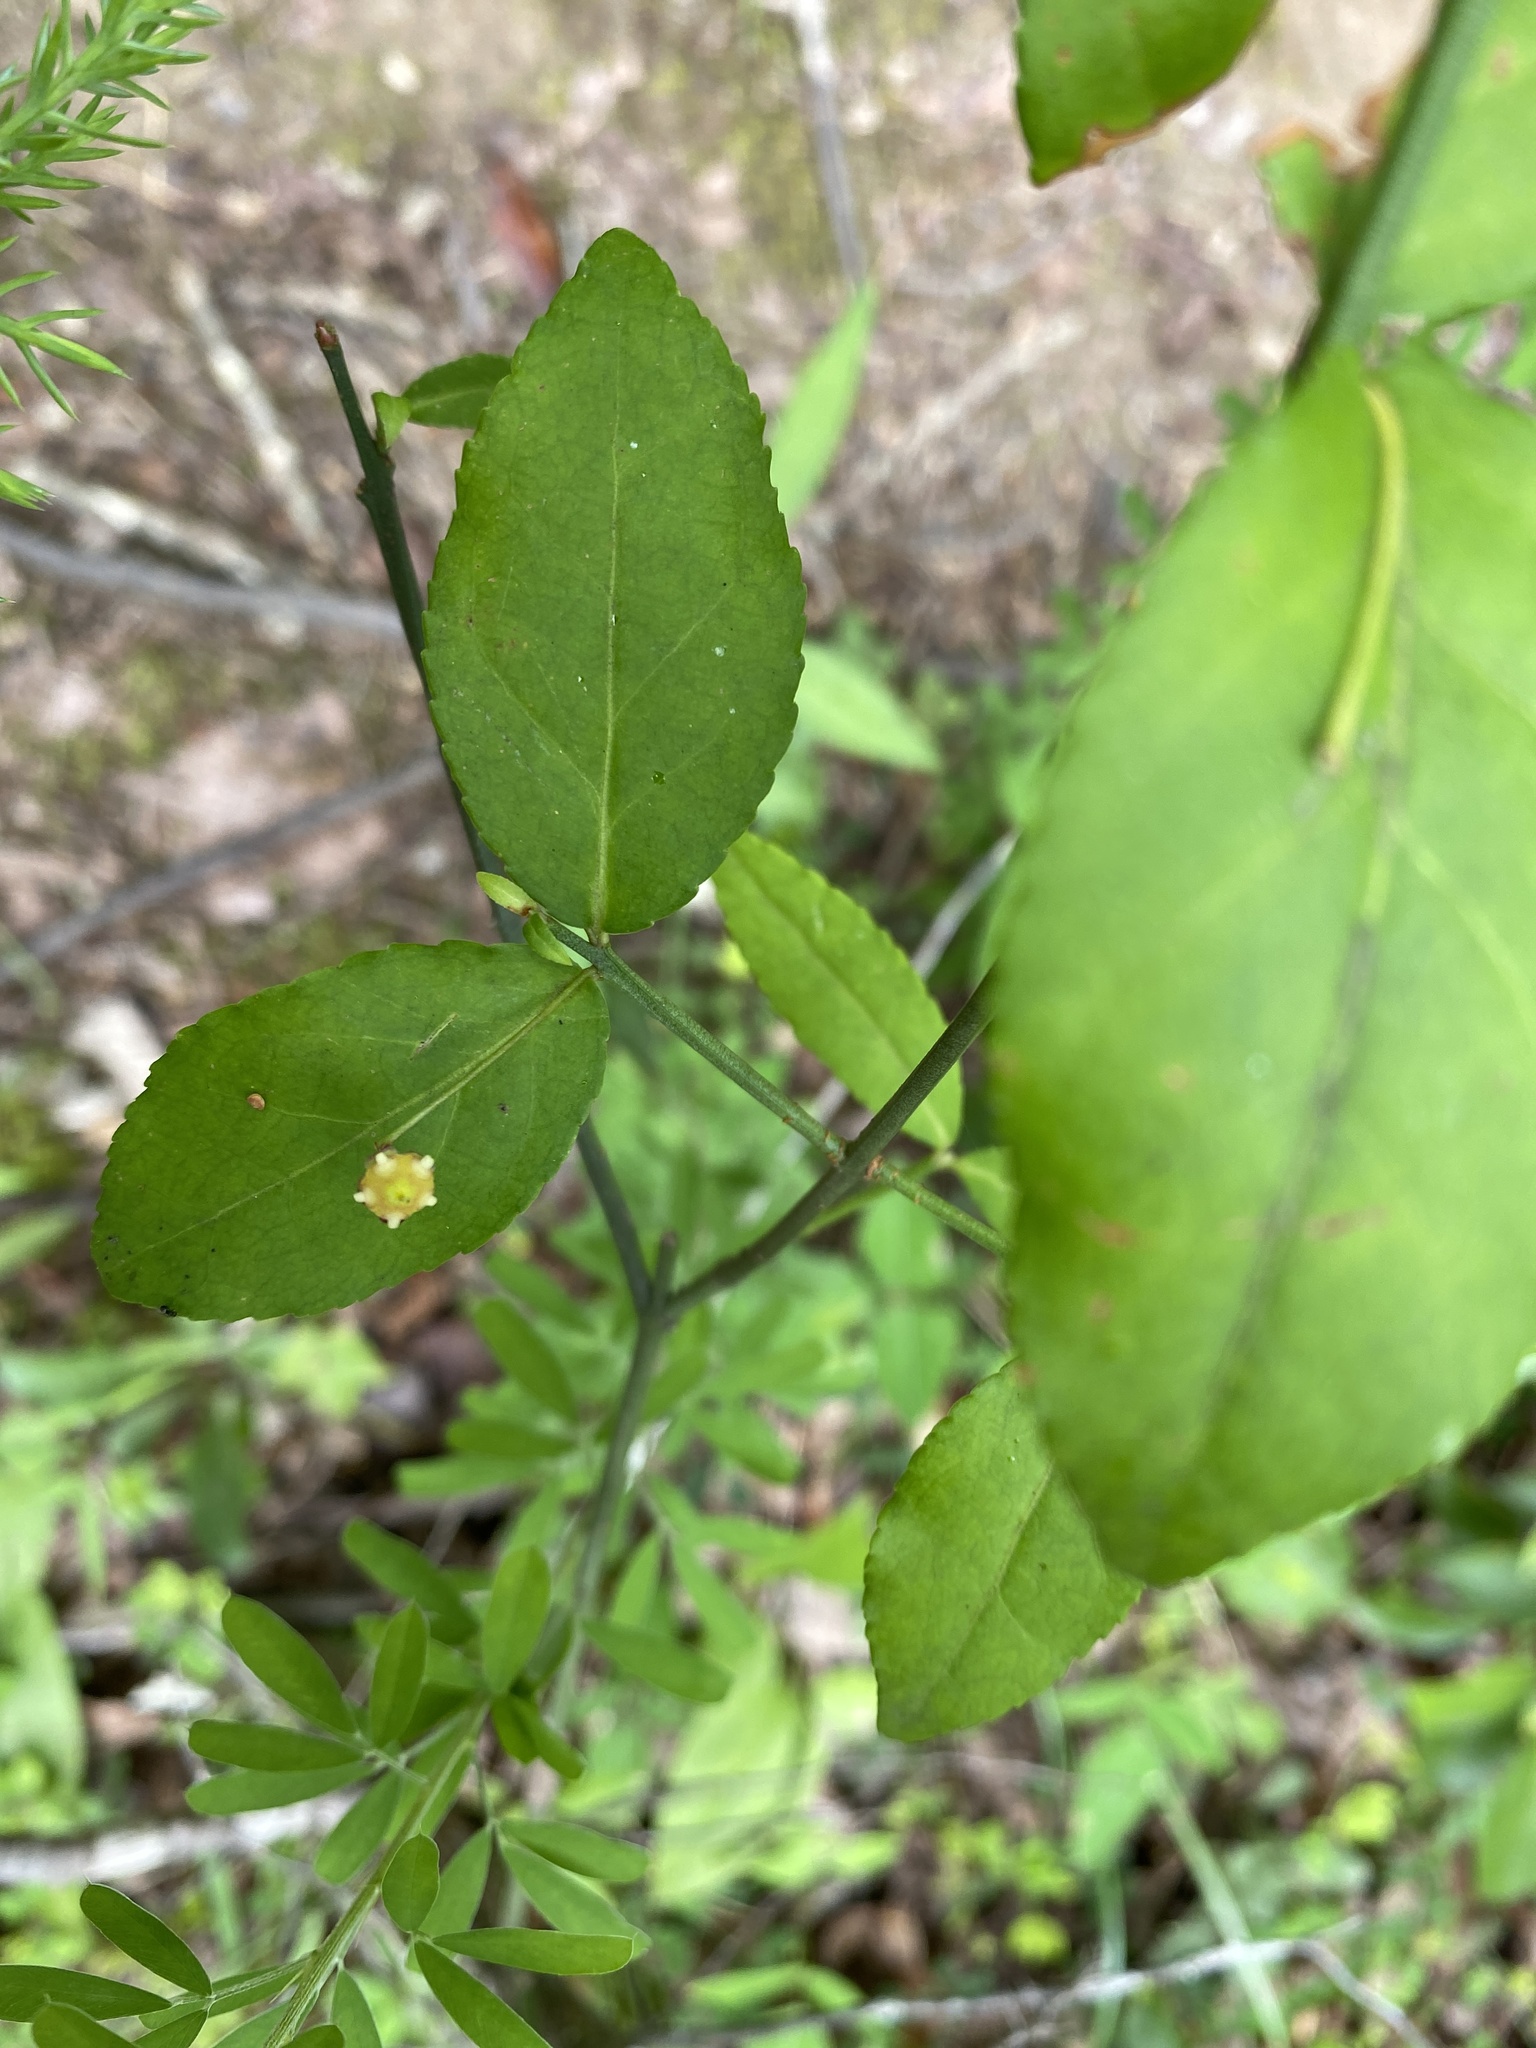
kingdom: Plantae
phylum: Tracheophyta
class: Magnoliopsida
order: Celastrales
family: Celastraceae
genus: Euonymus
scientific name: Euonymus americanus
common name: Bursting-heart
